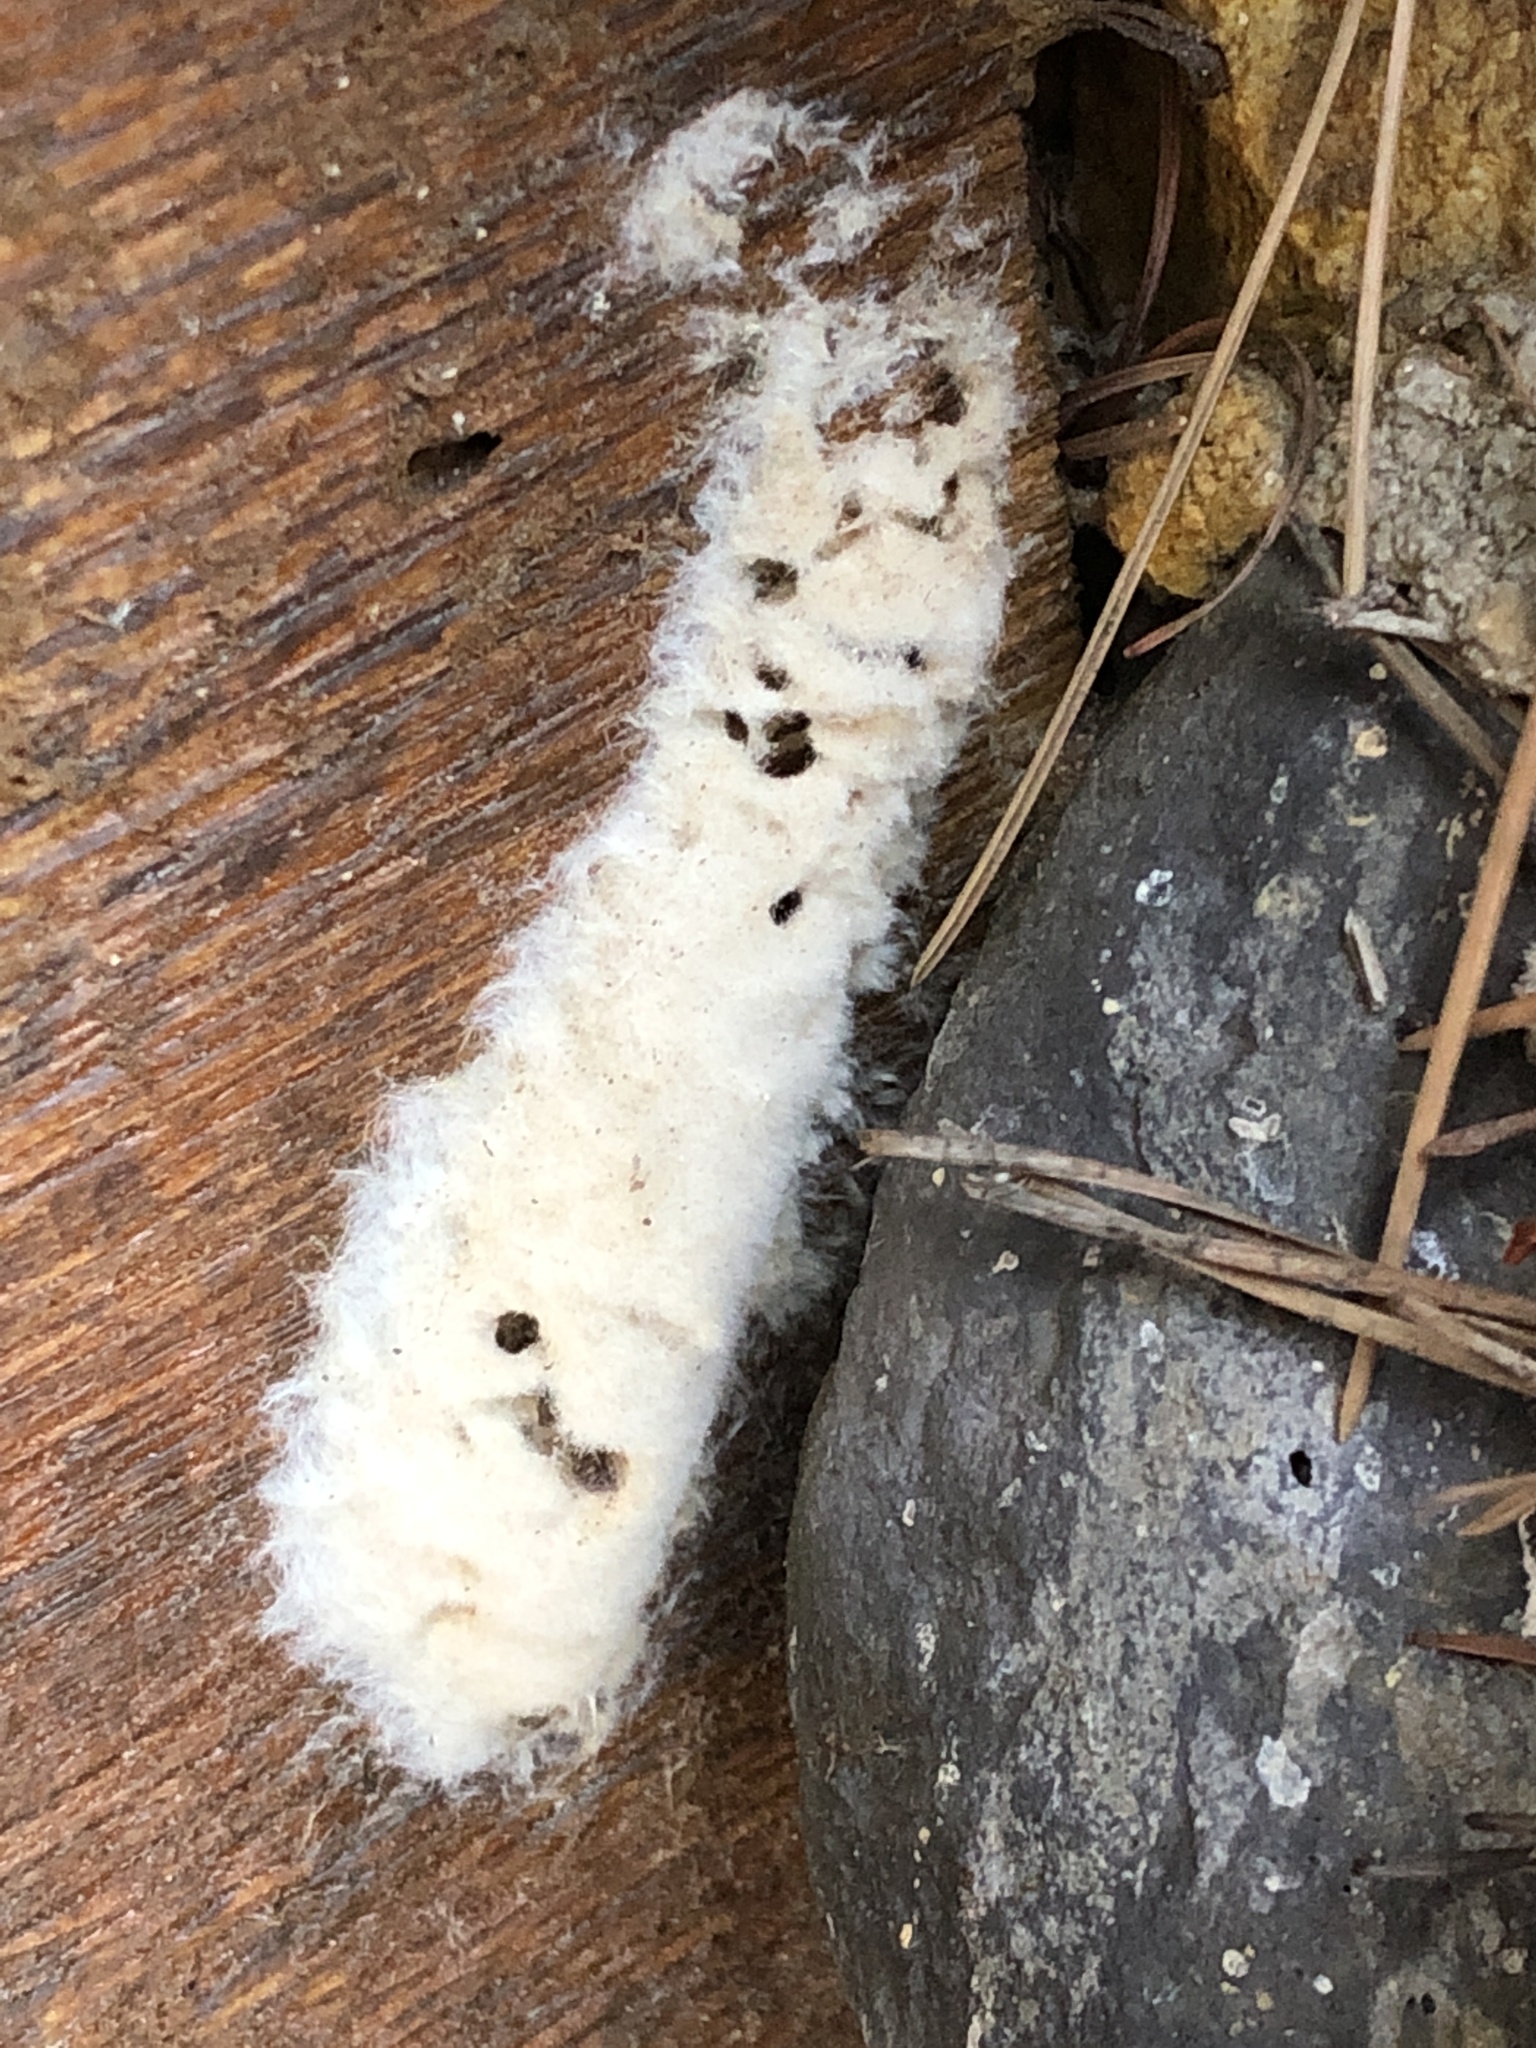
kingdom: Animalia
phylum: Arthropoda
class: Insecta
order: Lepidoptera
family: Erebidae
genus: Lymantria
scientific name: Lymantria dispar
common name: Gypsy moth
